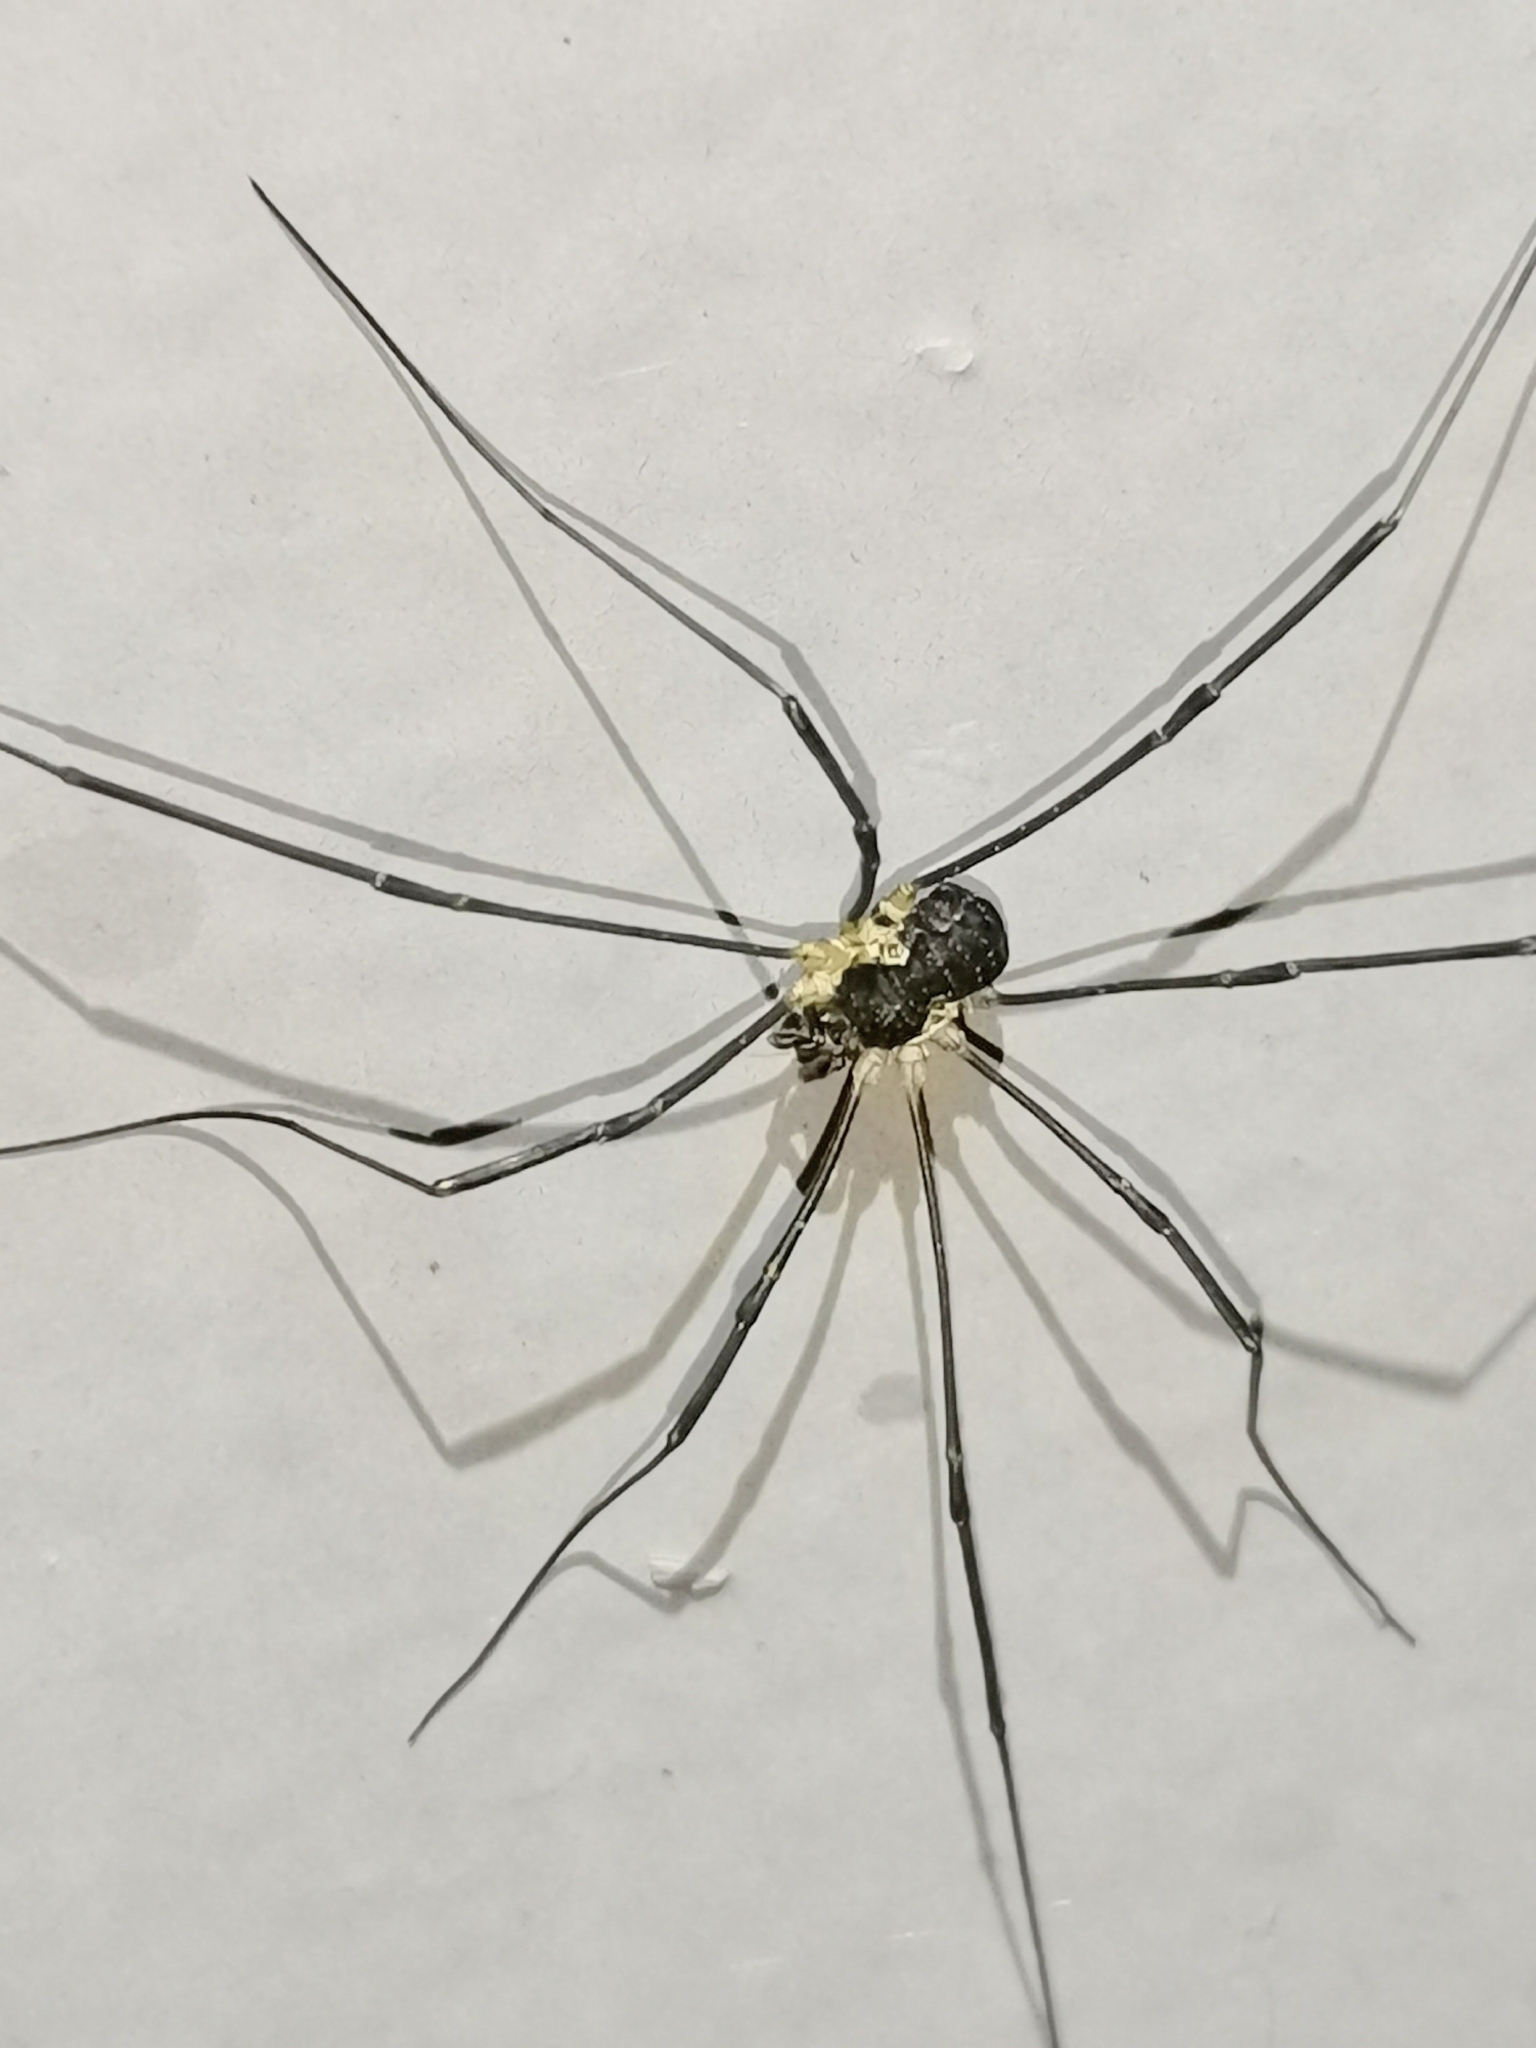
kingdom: Animalia
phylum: Arthropoda
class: Arachnida
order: Opiliones
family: Phalangiidae
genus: Mitopus
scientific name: Mitopus morio
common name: Saddleback harvestman
